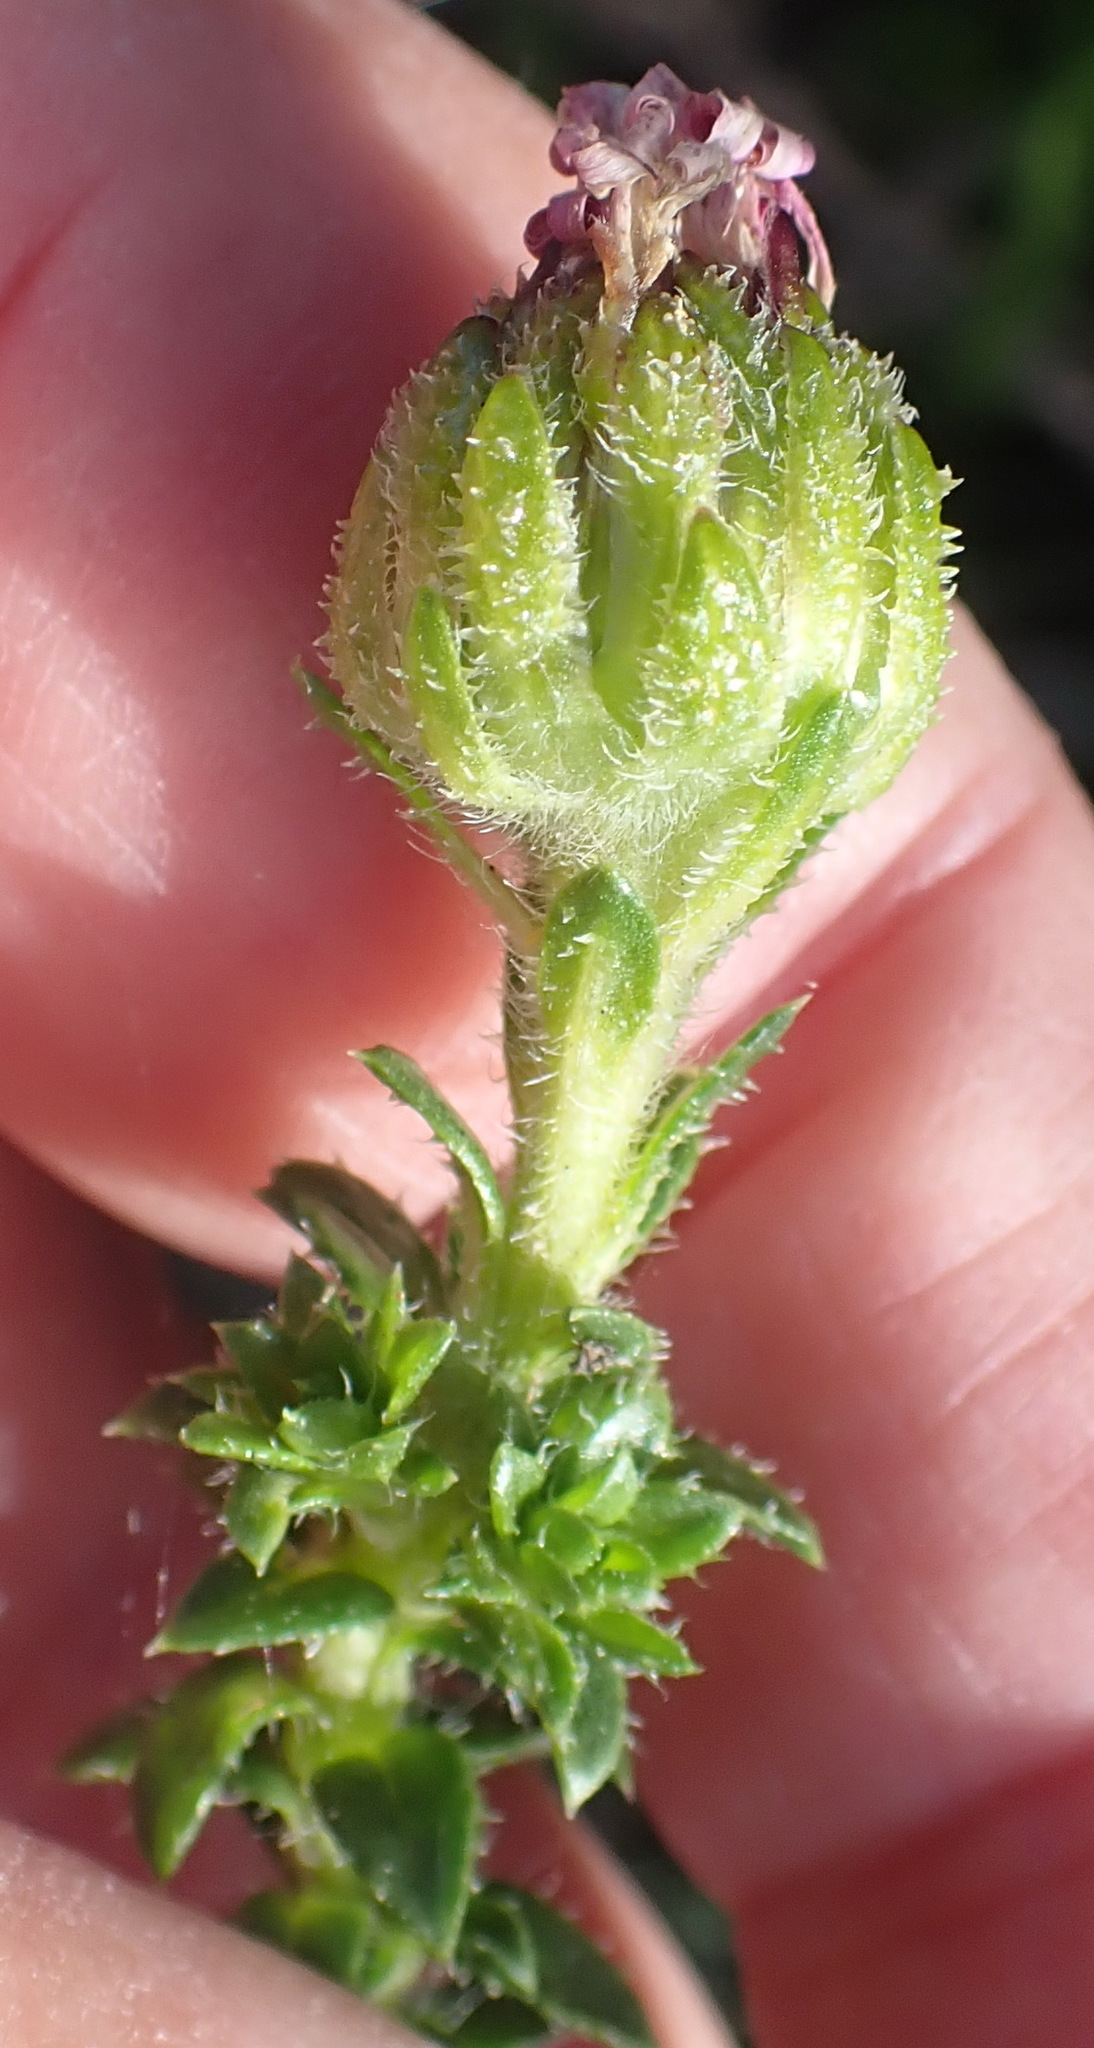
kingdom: Plantae
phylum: Tracheophyta
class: Magnoliopsida
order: Asterales
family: Asteraceae
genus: Felicia
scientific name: Felicia echinata
